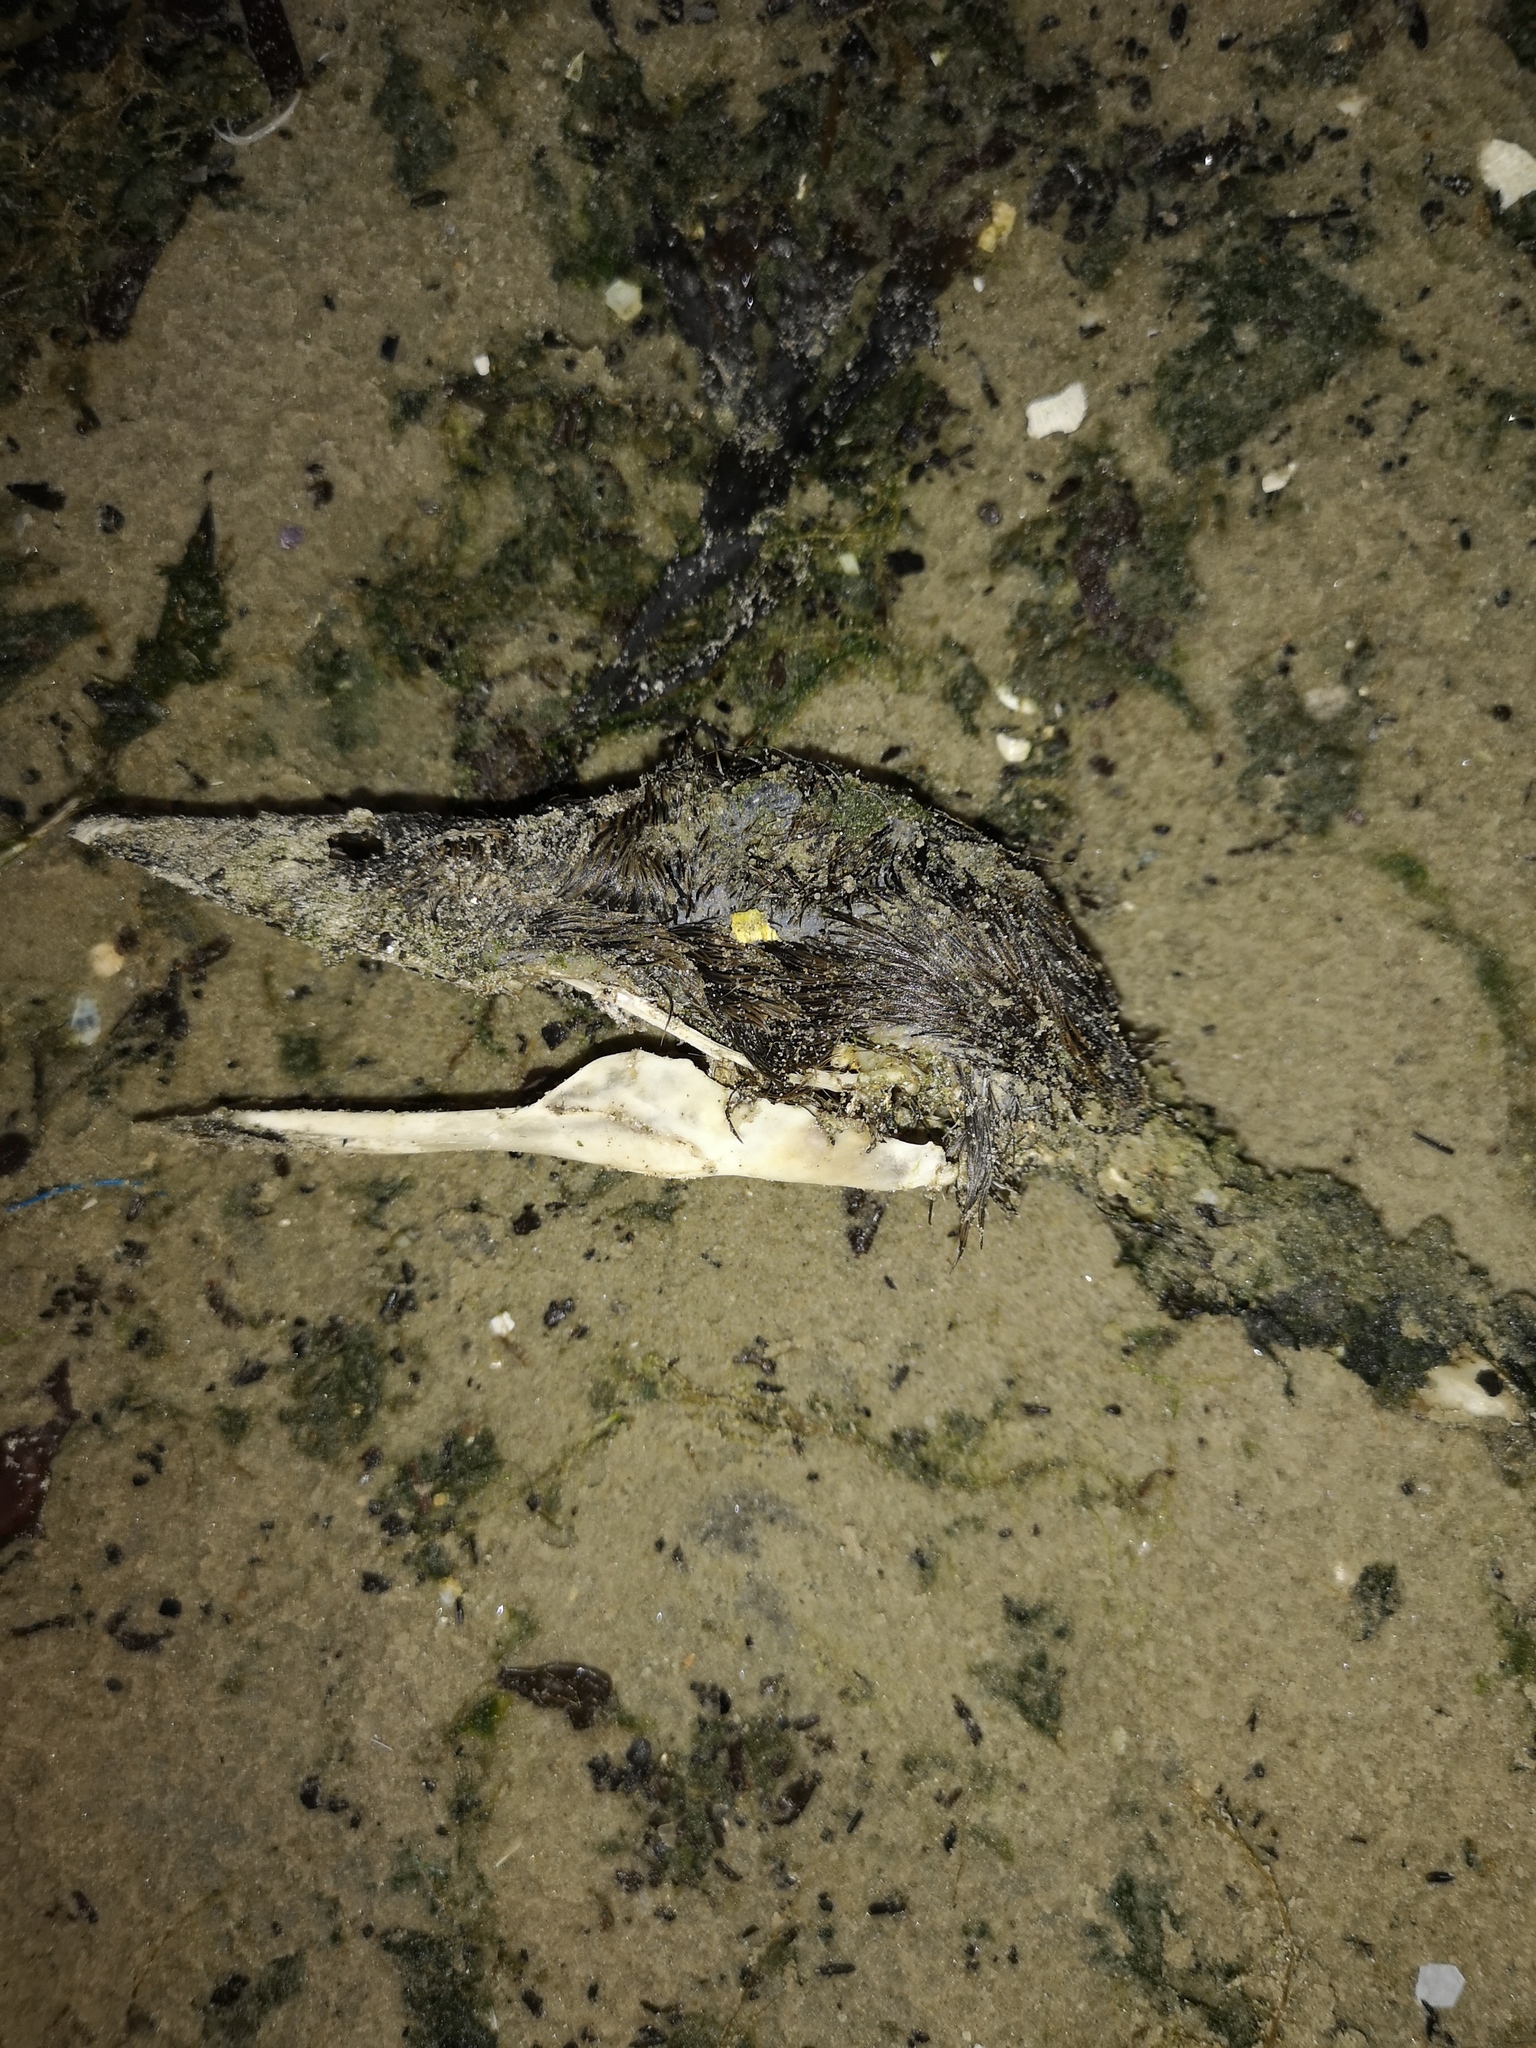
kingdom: Animalia
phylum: Chordata
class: Aves
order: Anseriformes
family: Anatidae
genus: Somateria
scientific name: Somateria mollissima
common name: Common eider
